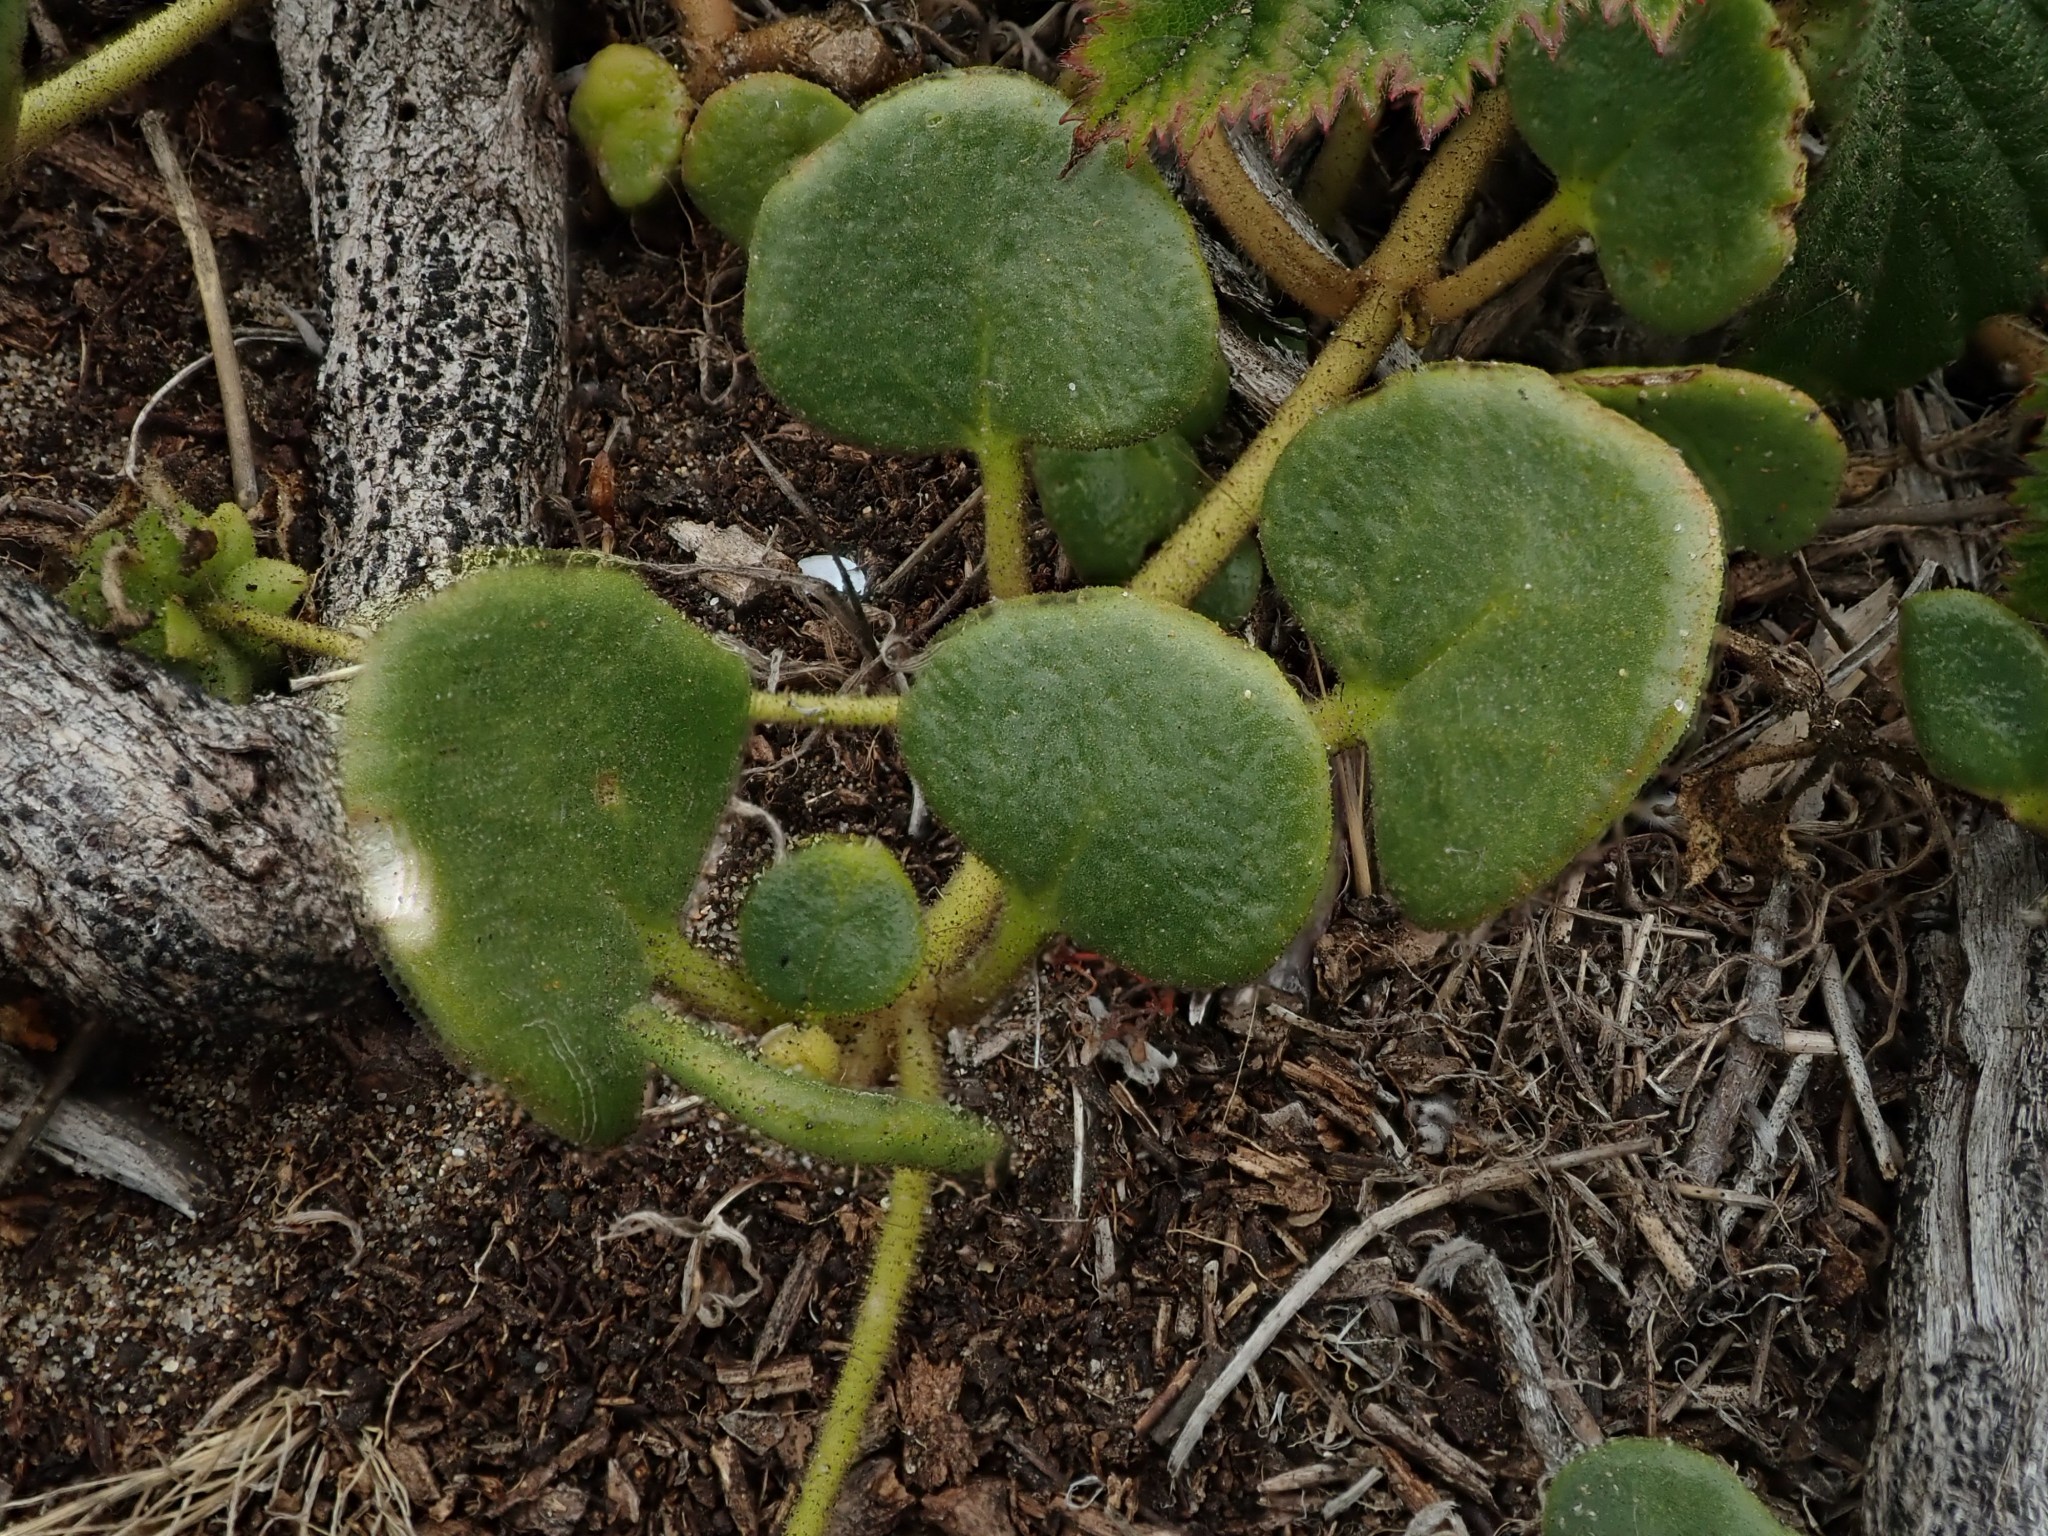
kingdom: Plantae
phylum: Tracheophyta
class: Magnoliopsida
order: Caryophyllales
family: Nyctaginaceae
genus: Abronia
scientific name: Abronia latifolia
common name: Yellow sand-verbena
